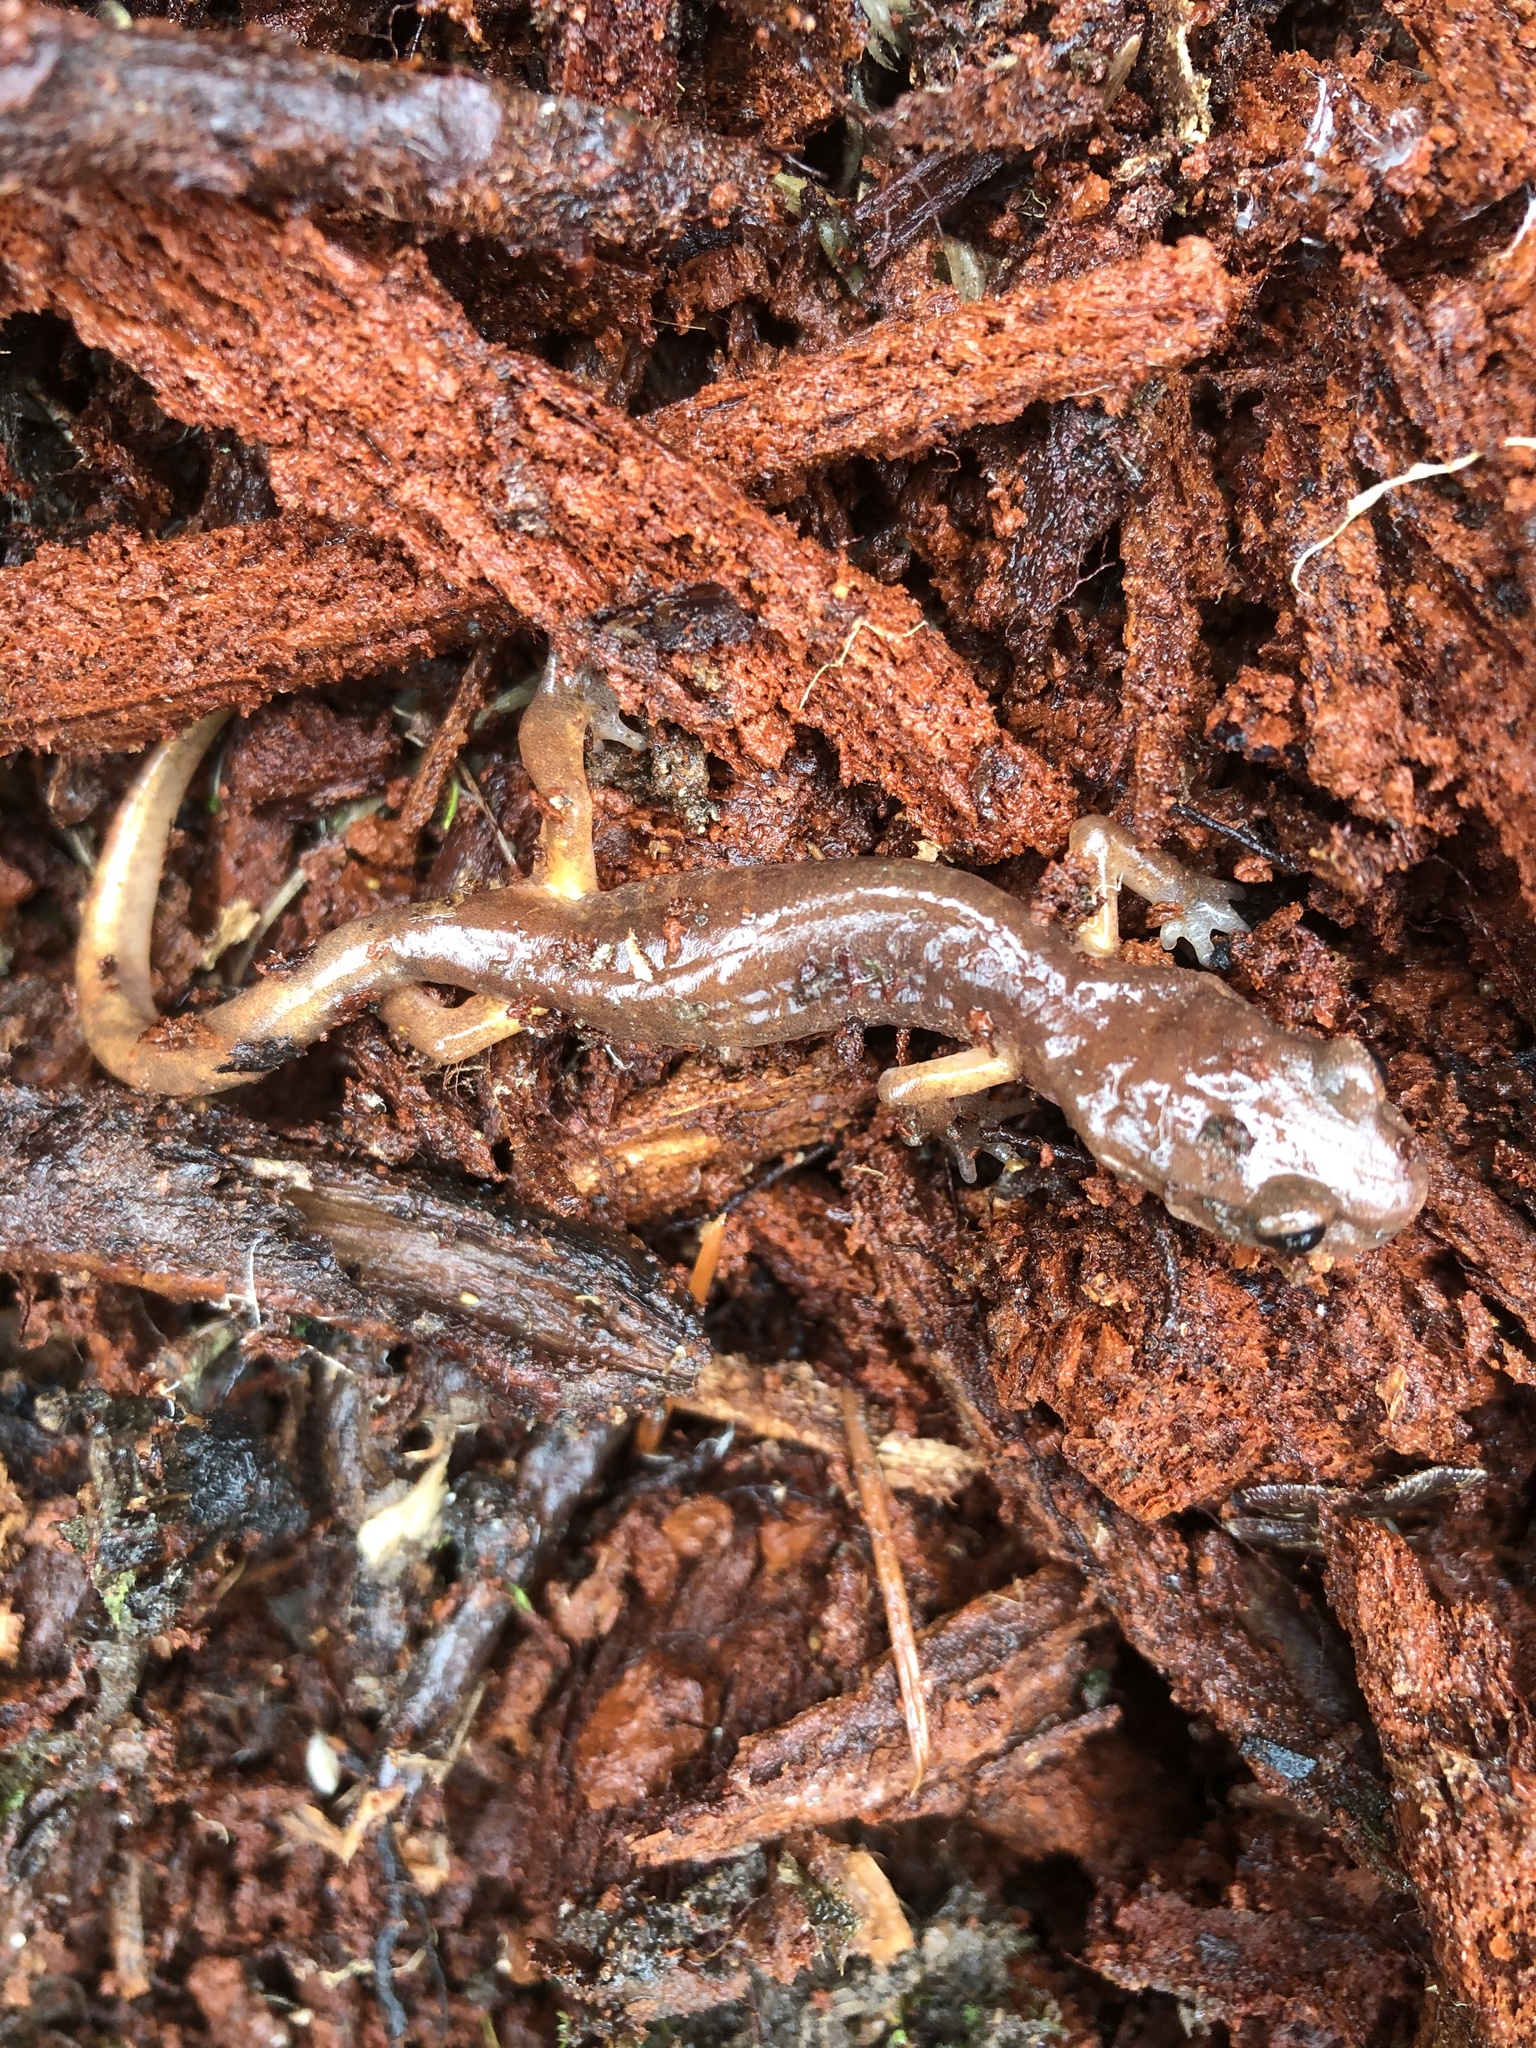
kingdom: Animalia
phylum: Chordata
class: Amphibia
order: Caudata
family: Plethodontidae
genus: Ensatina
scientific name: Ensatina eschscholtzii
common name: Ensatina
